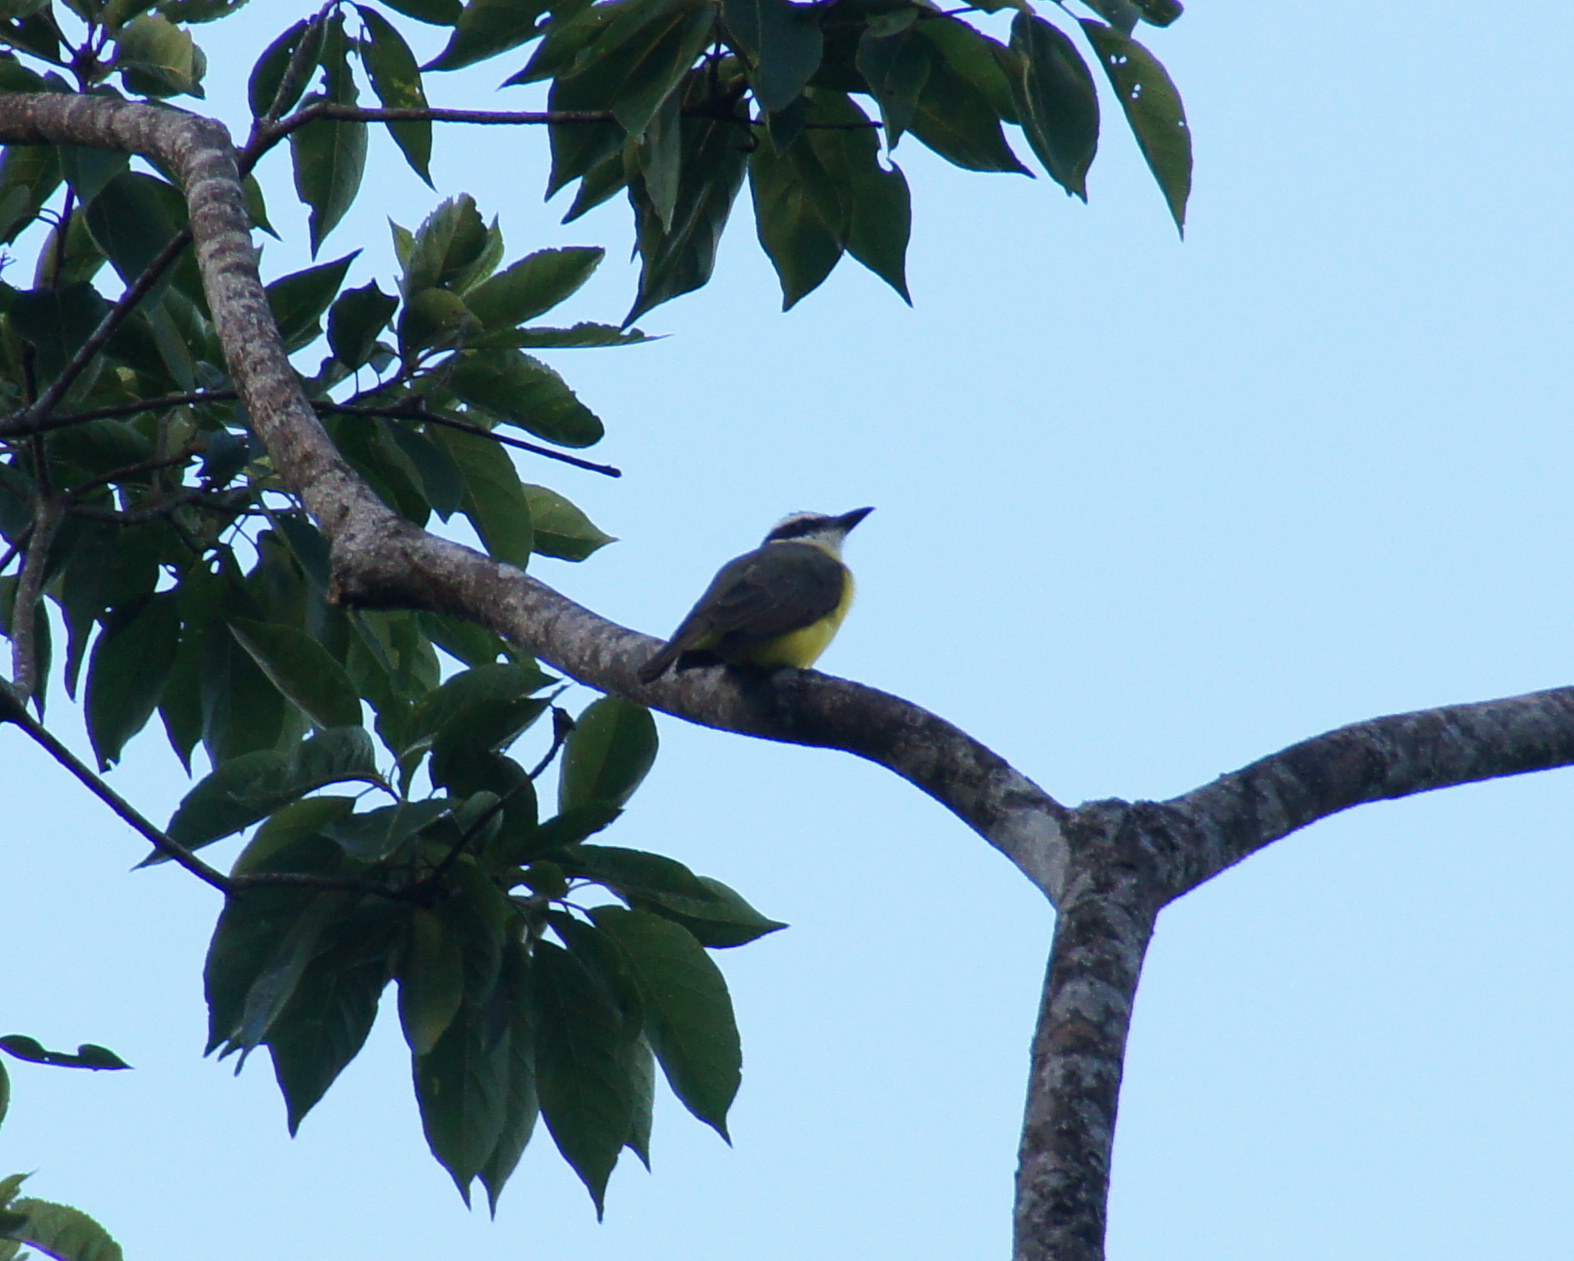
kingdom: Animalia
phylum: Chordata
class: Aves
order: Passeriformes
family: Tyrannidae
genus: Pitangus
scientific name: Pitangus sulphuratus
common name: Great kiskadee
